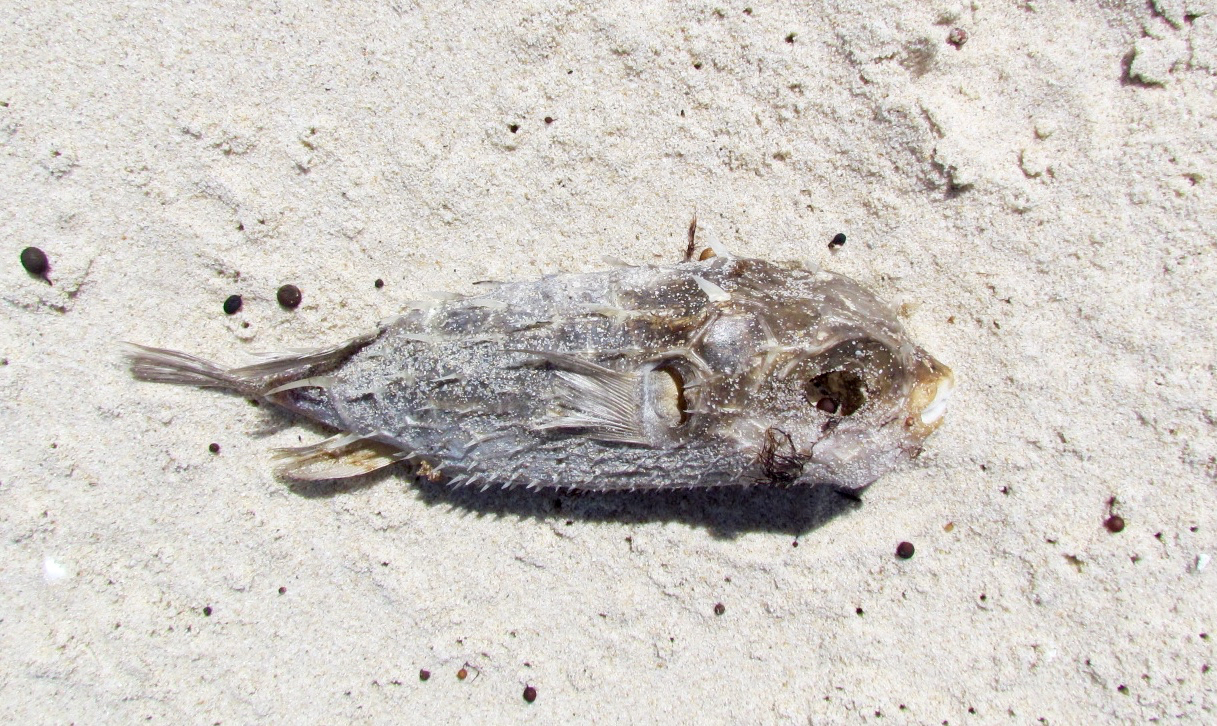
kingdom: Animalia
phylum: Chordata
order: Tetraodontiformes
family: Diodontidae
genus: Allomycterus
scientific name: Allomycterus pilatus
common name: No common name
